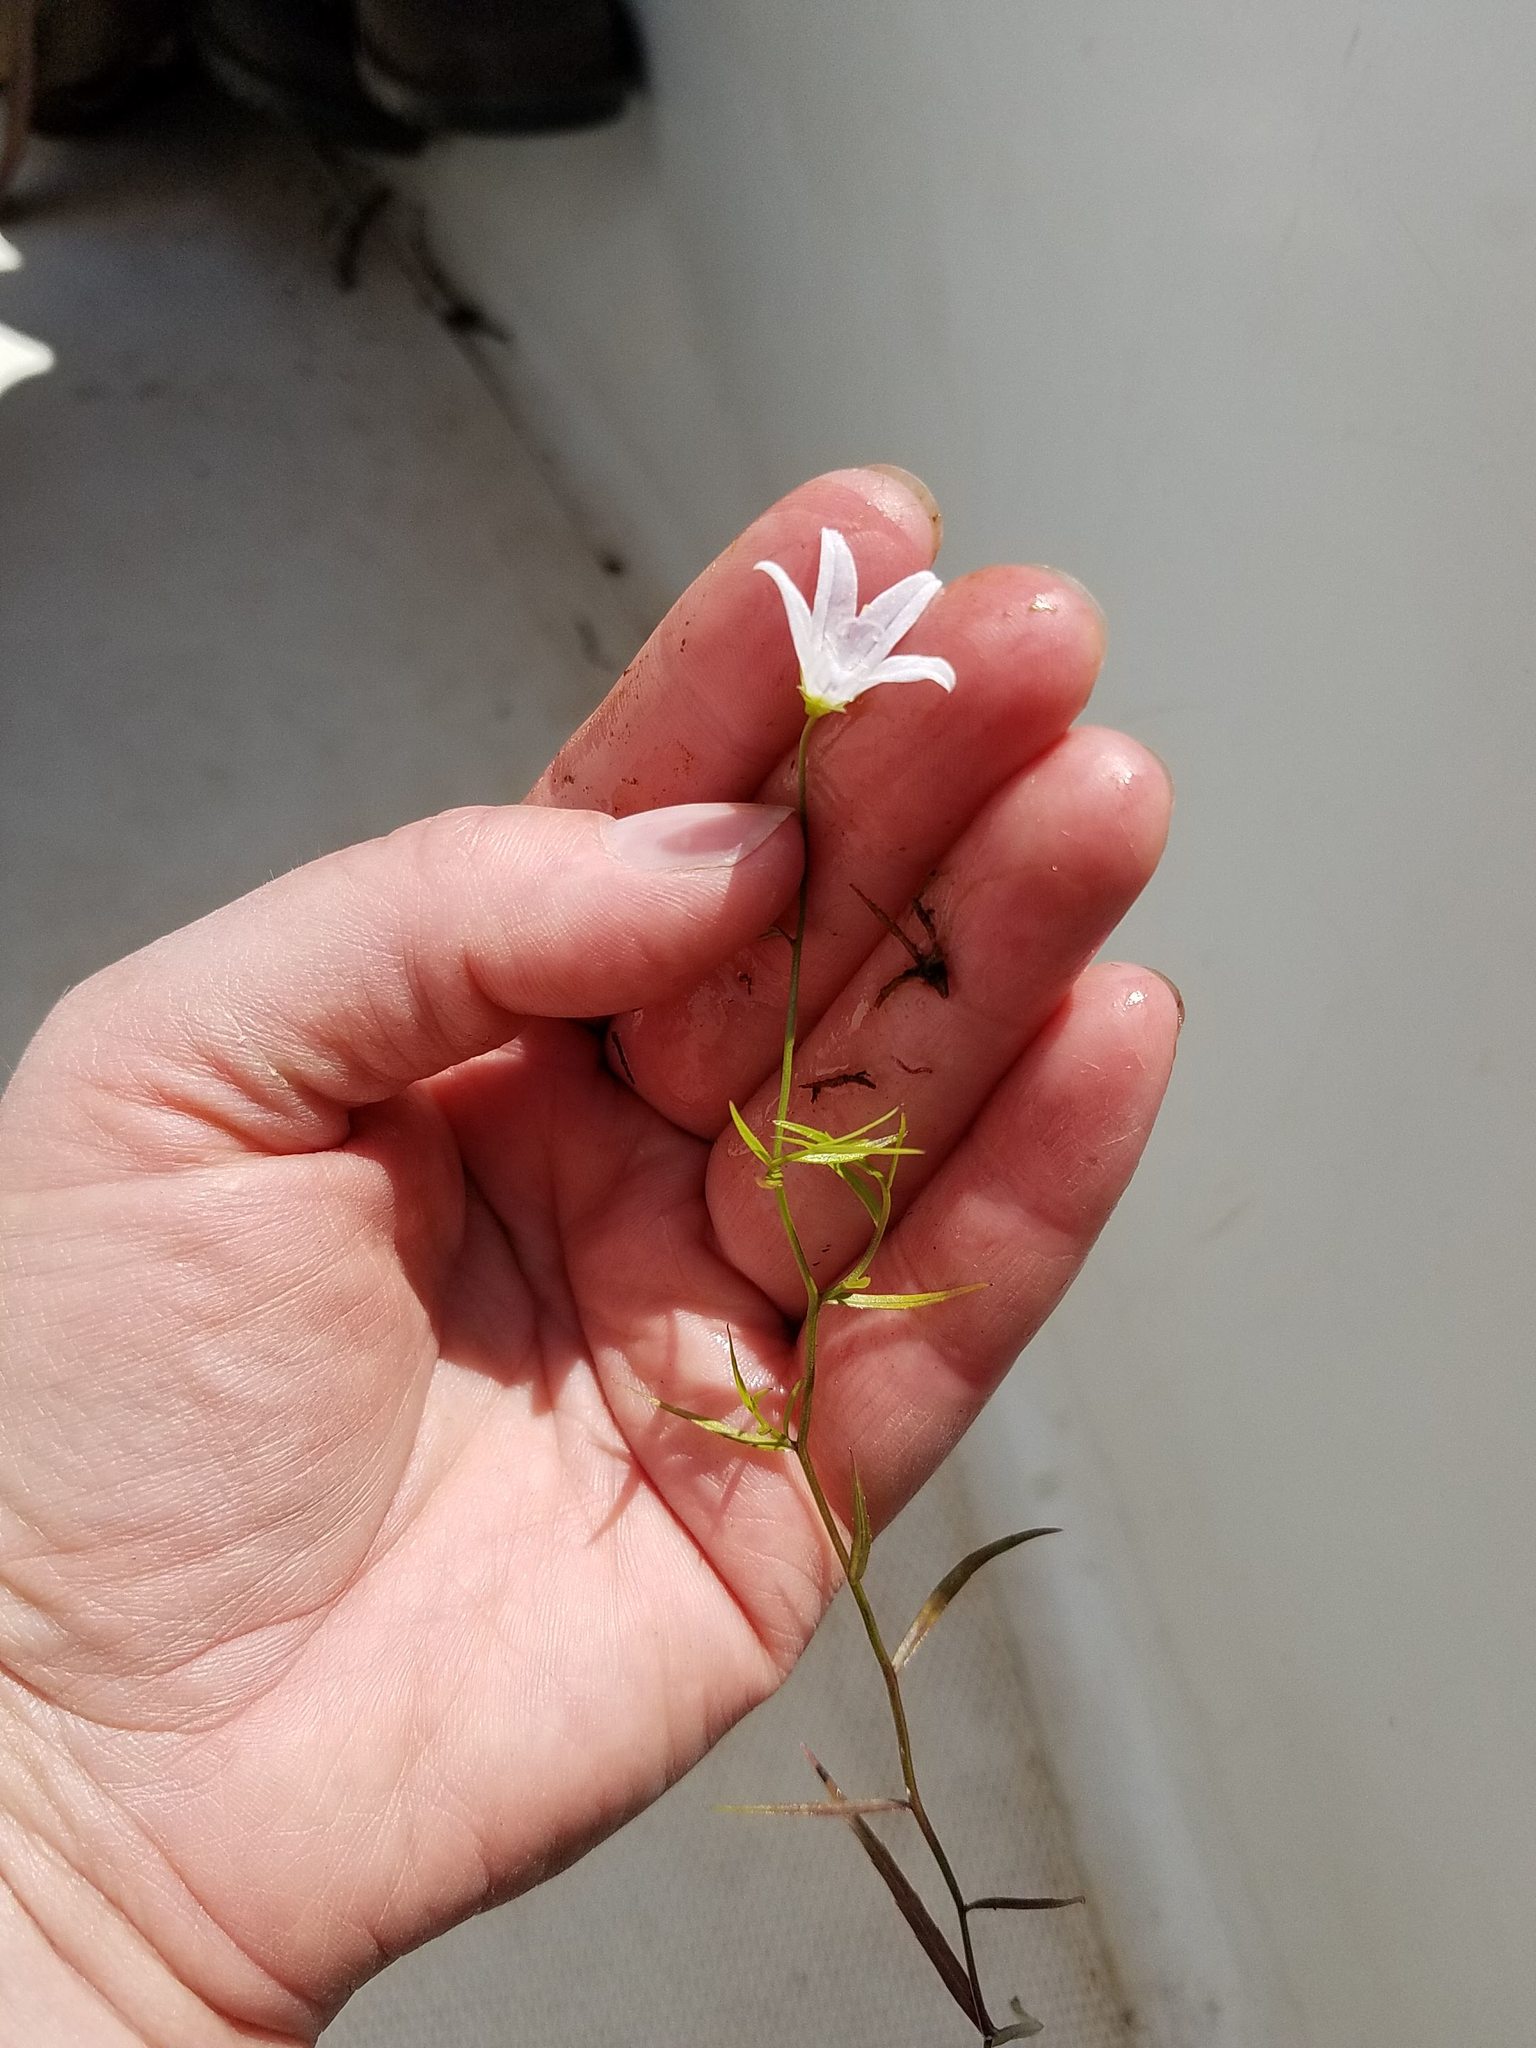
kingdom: Plantae
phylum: Tracheophyta
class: Magnoliopsida
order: Asterales
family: Campanulaceae
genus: Palustricodon
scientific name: Palustricodon aparinoides
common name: Bedstraw bellflower
